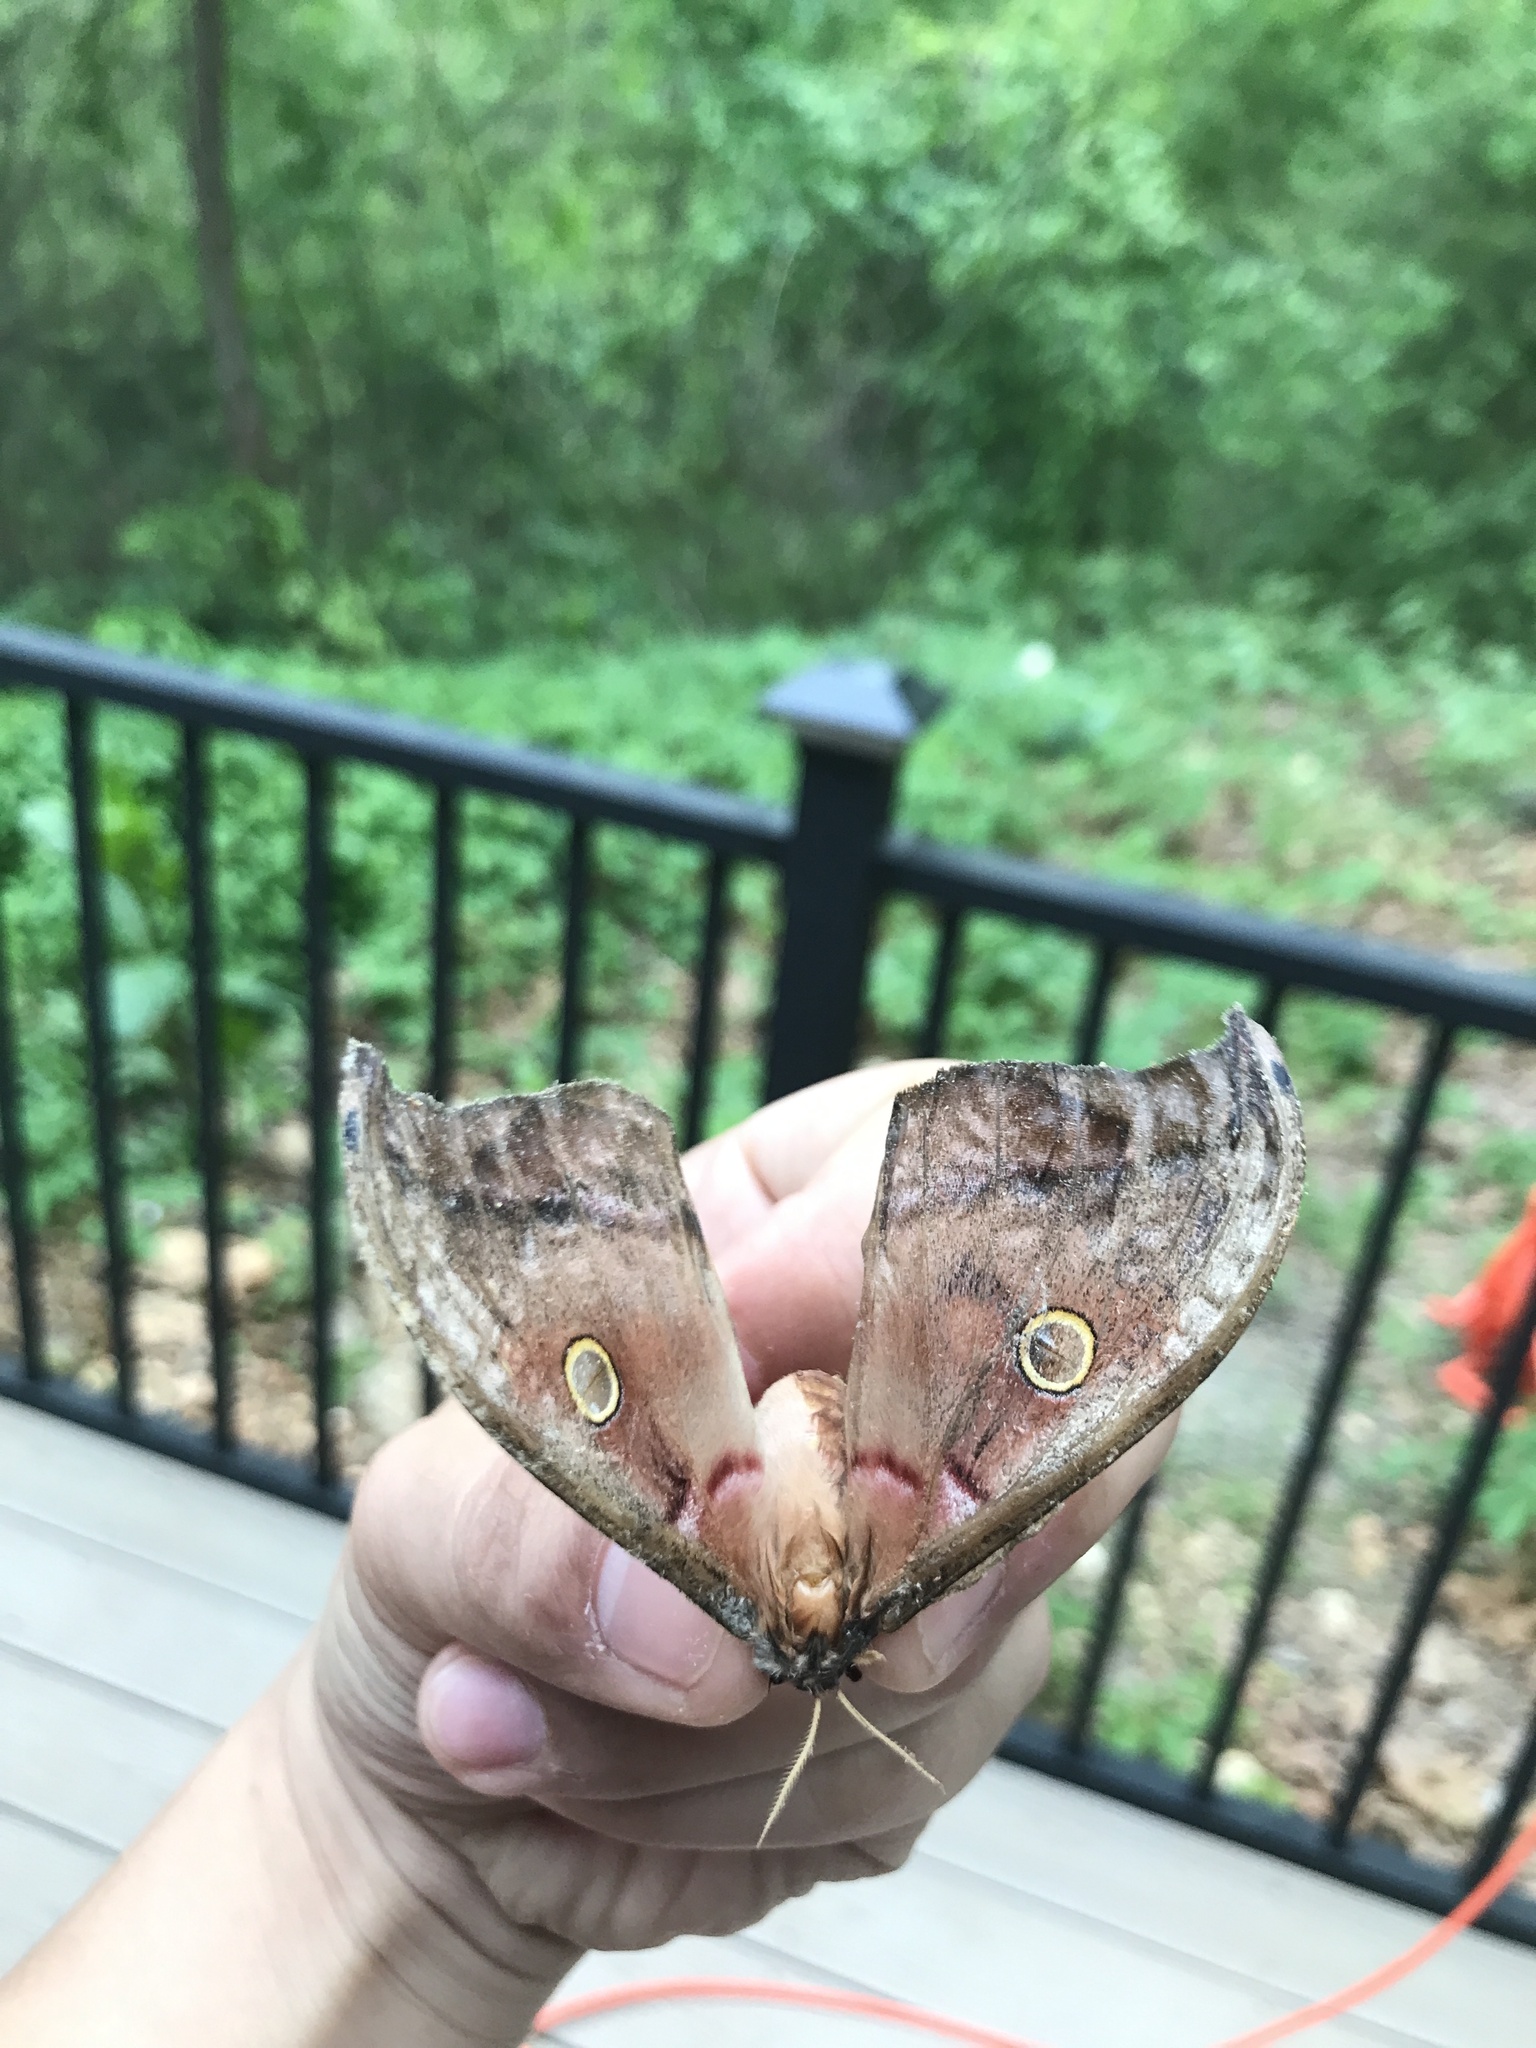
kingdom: Animalia
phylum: Arthropoda
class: Insecta
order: Lepidoptera
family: Saturniidae
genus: Antheraea
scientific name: Antheraea polyphemus
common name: Polyphemus moth
